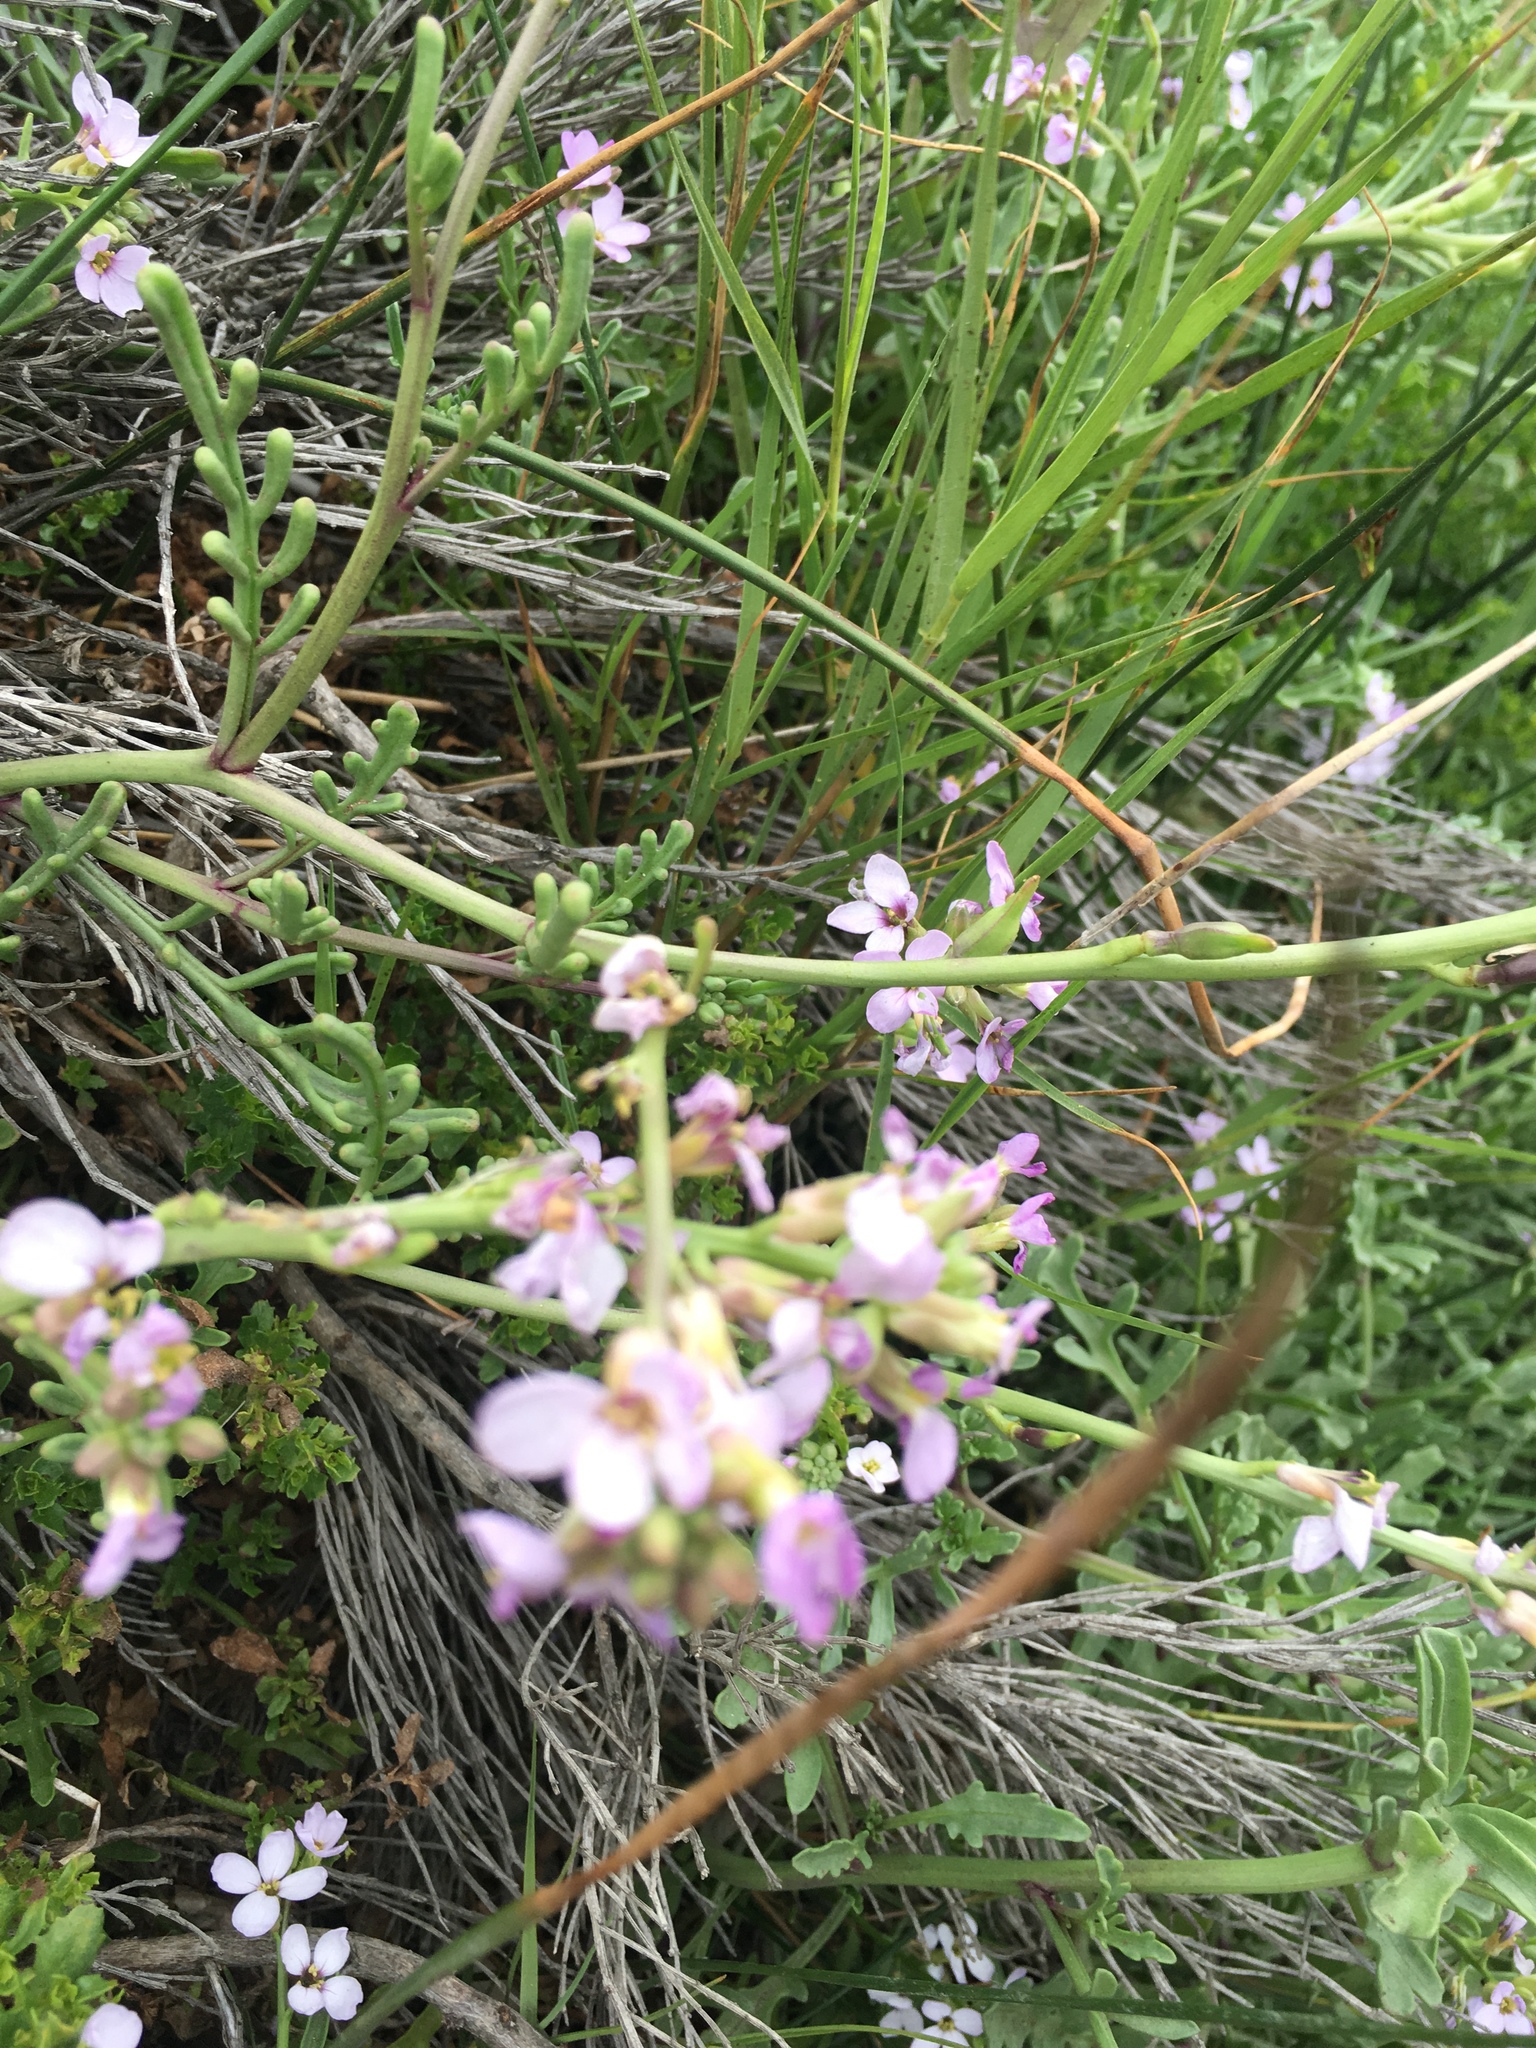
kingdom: Plantae
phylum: Tracheophyta
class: Magnoliopsida
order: Brassicales
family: Brassicaceae
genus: Cakile
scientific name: Cakile maritima
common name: Sea rocket
